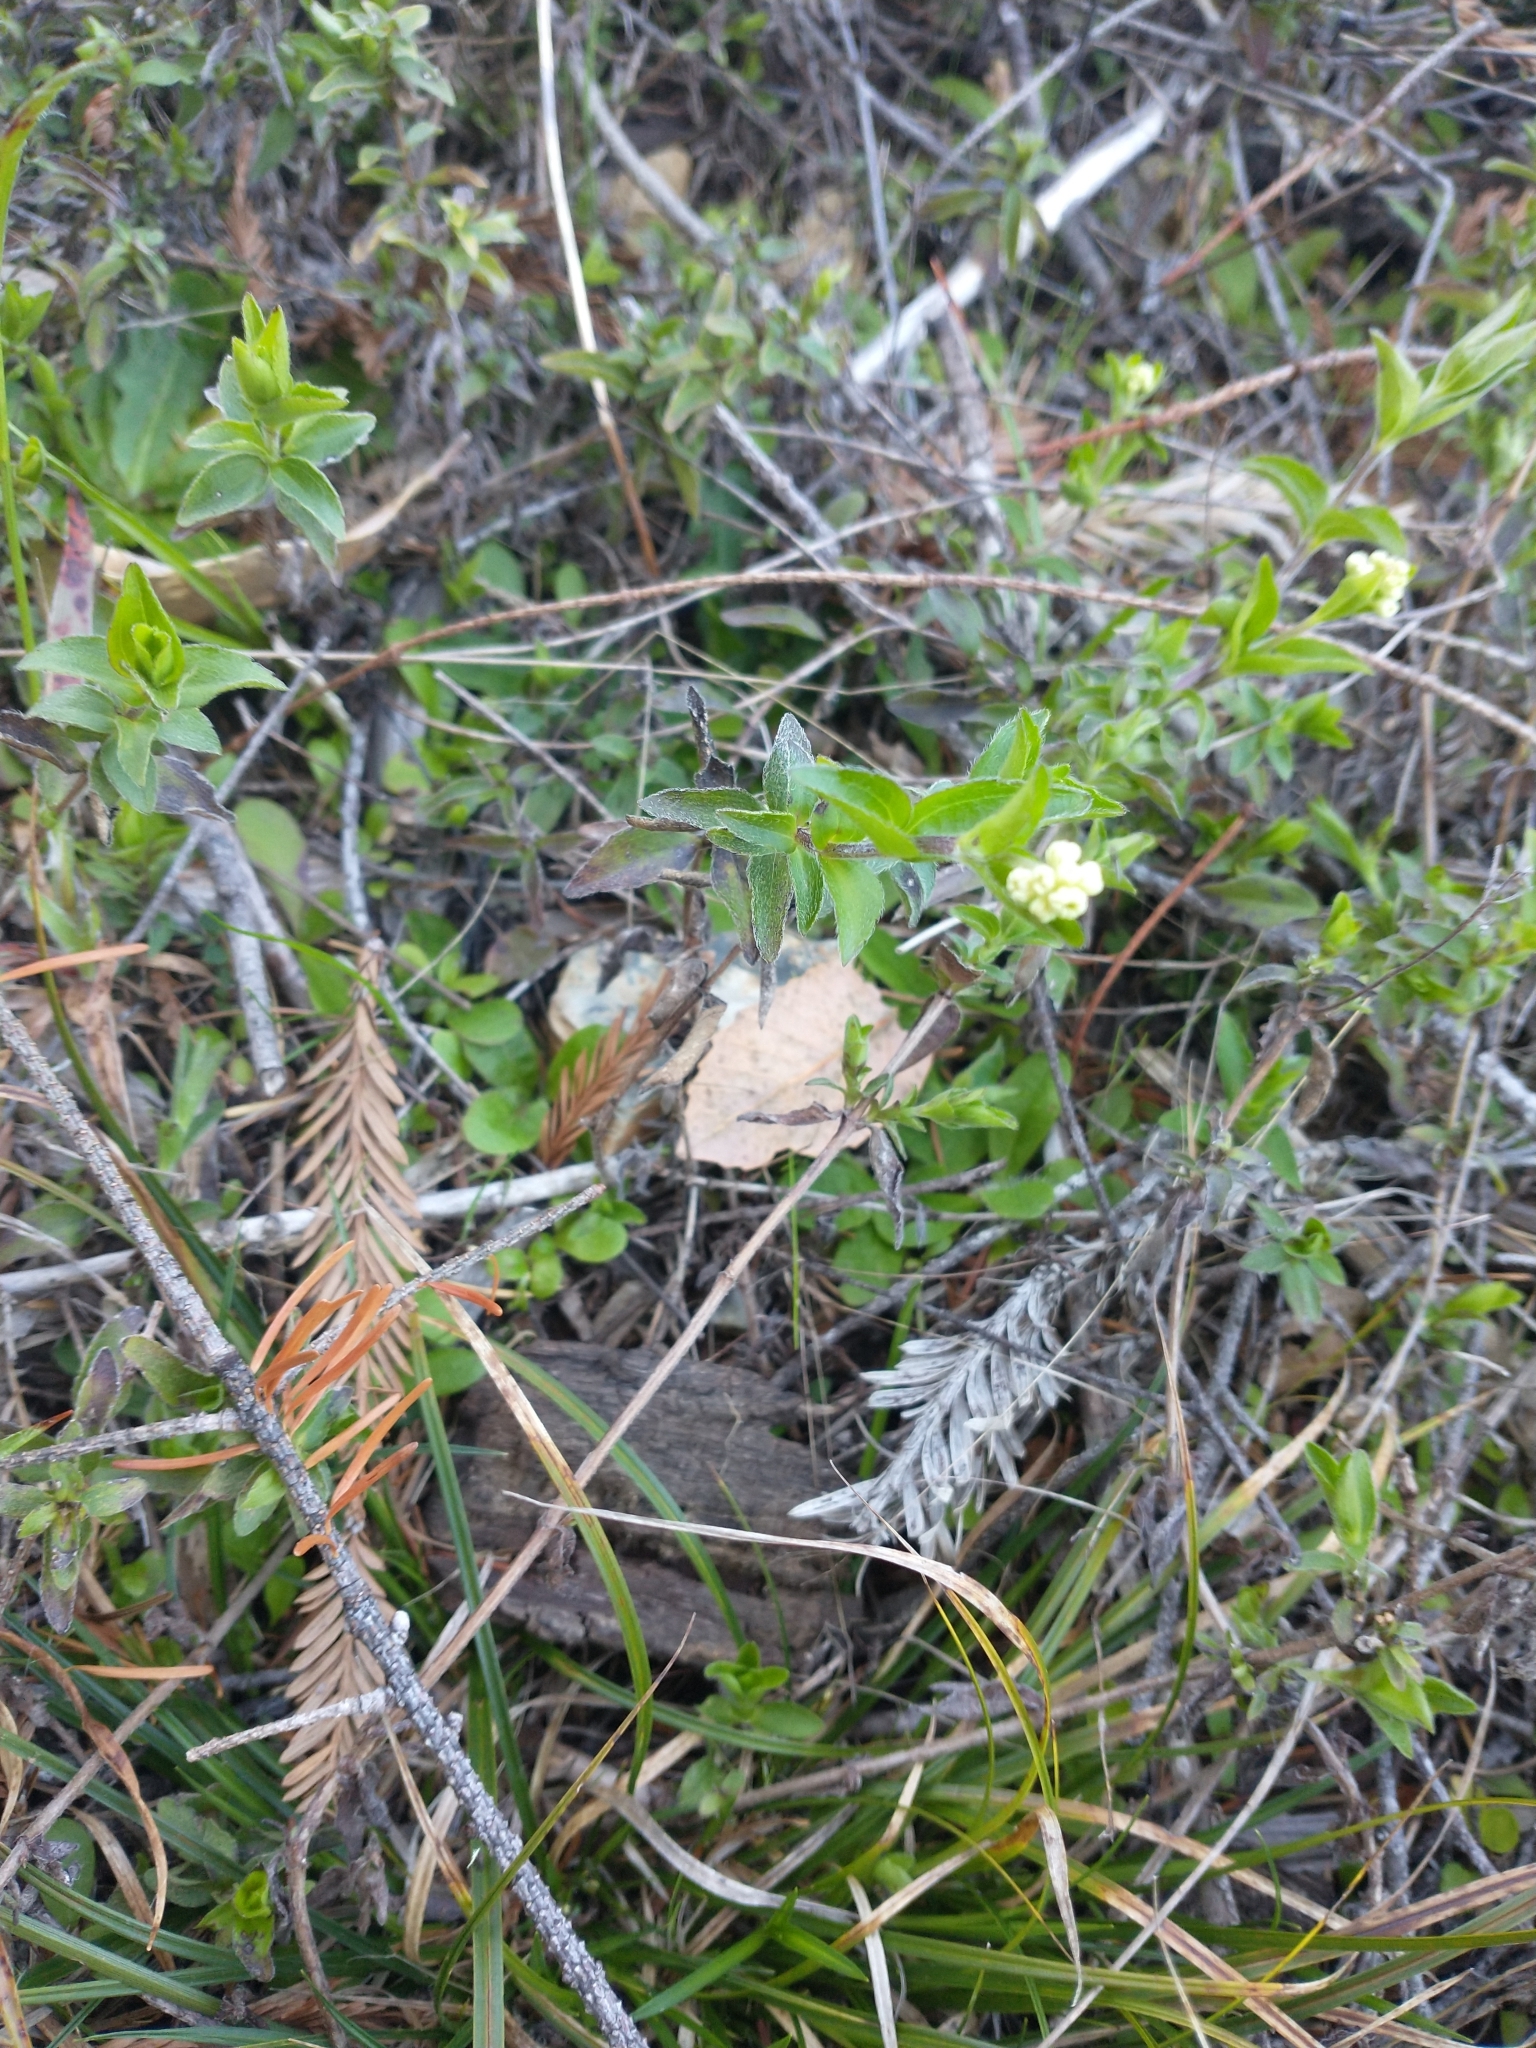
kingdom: Plantae
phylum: Tracheophyta
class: Magnoliopsida
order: Cornales
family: Hydrangeaceae
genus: Whipplea
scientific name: Whipplea modesta
